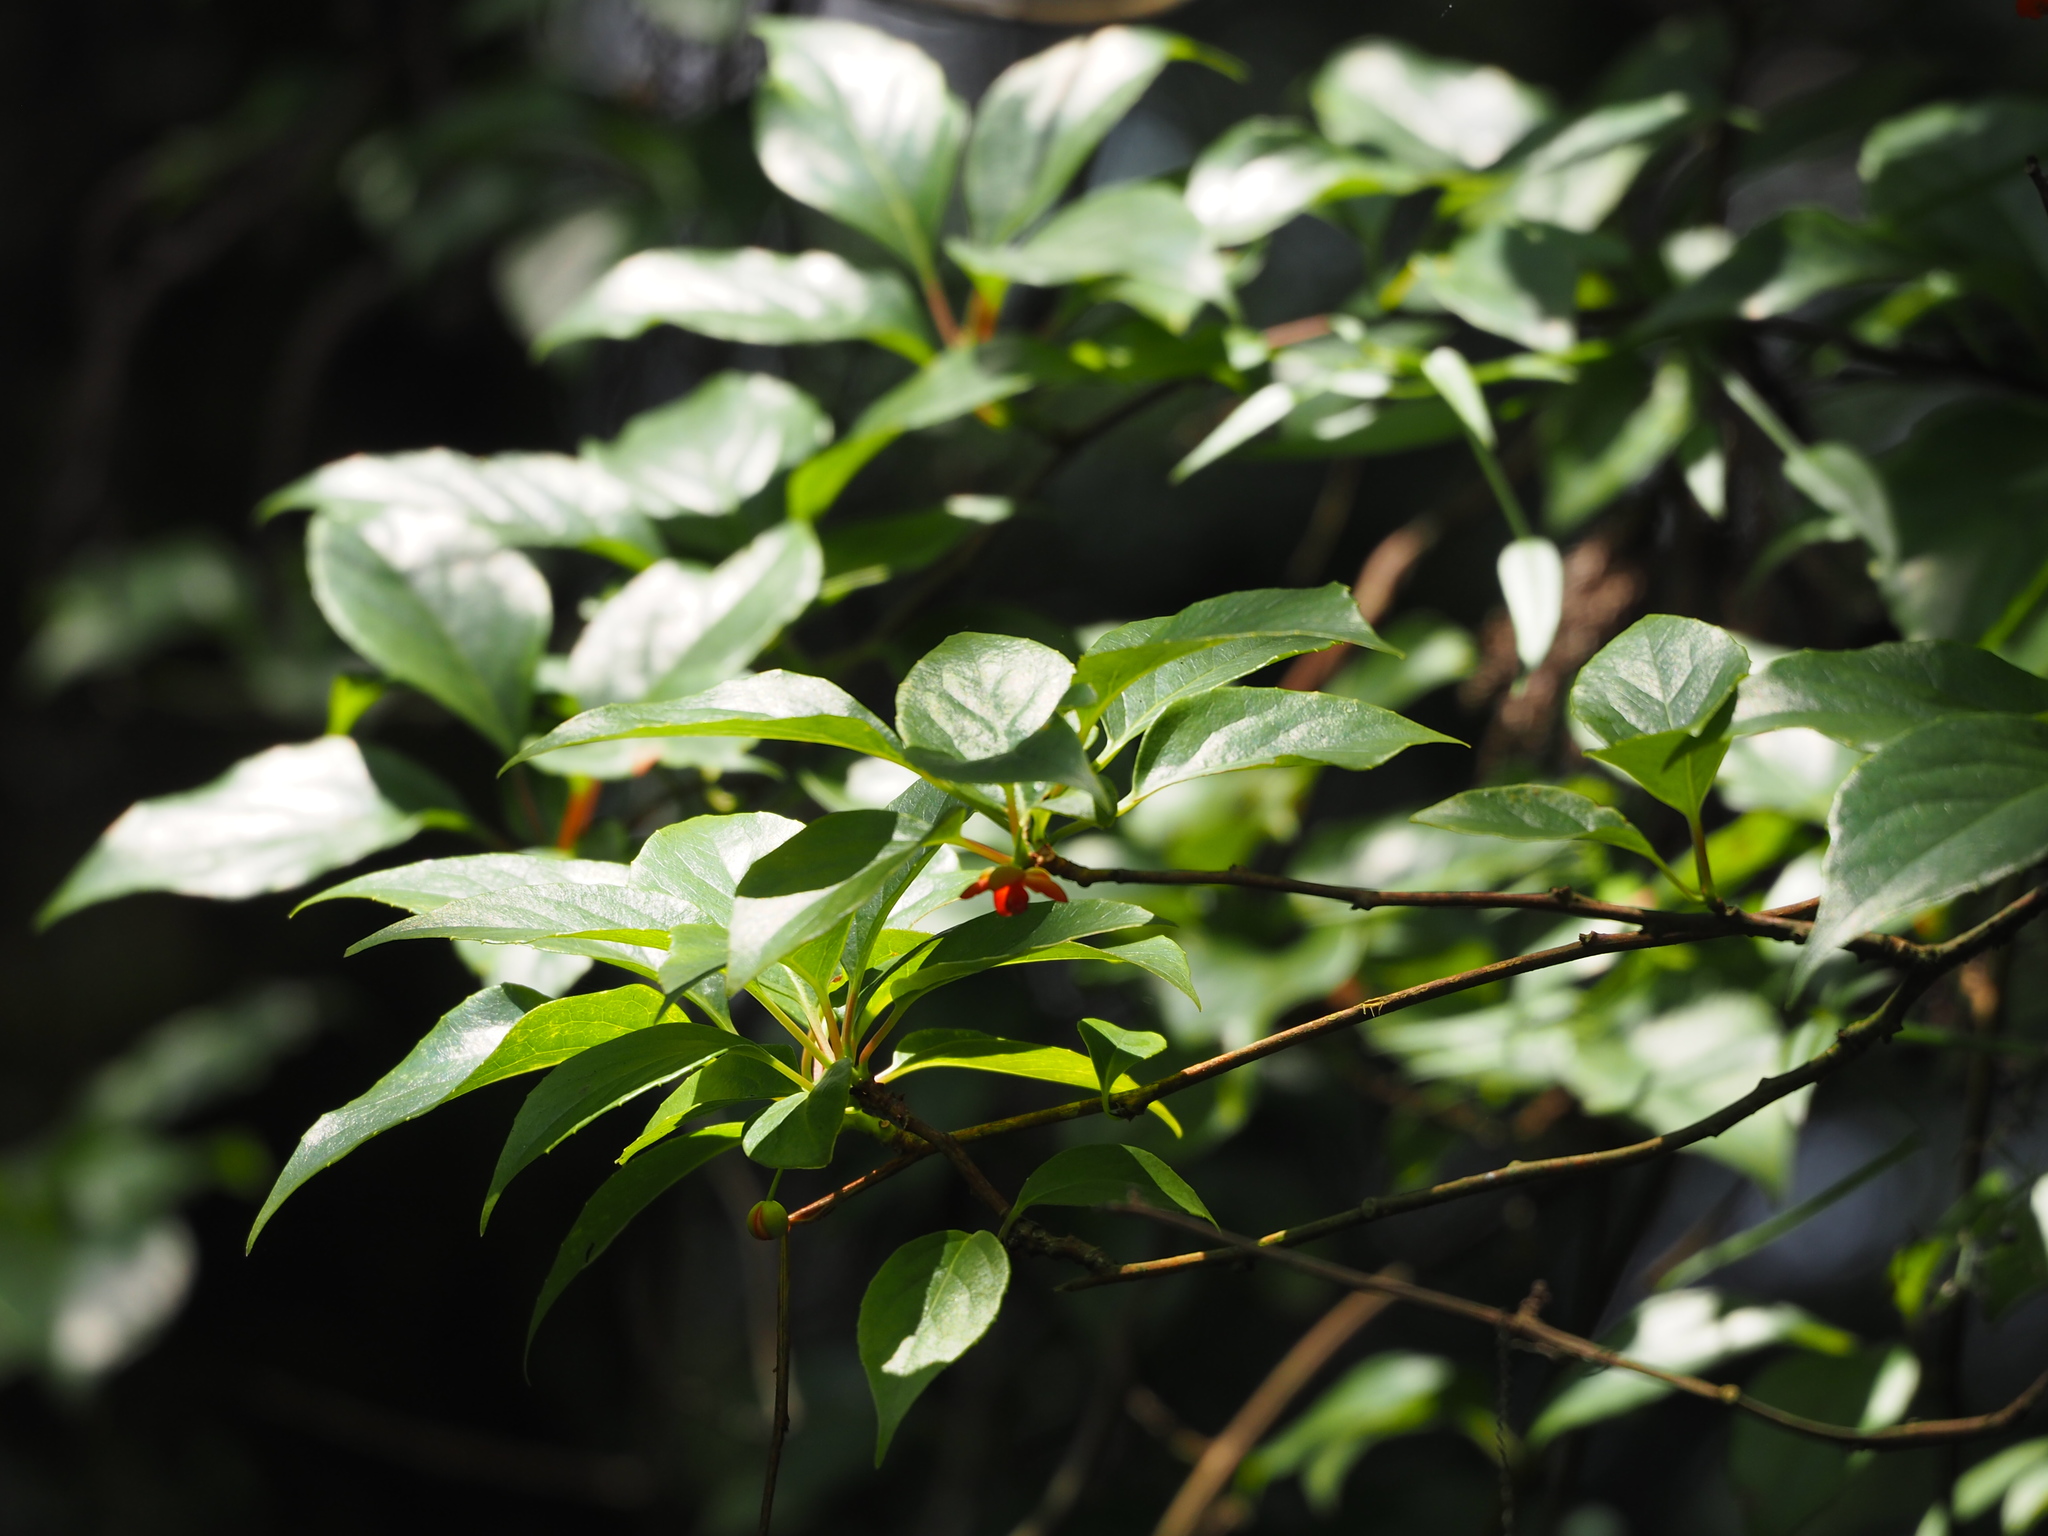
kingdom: Plantae
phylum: Tracheophyta
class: Magnoliopsida
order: Austrobaileyales
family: Schisandraceae
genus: Schisandra
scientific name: Schisandra arisanensis
